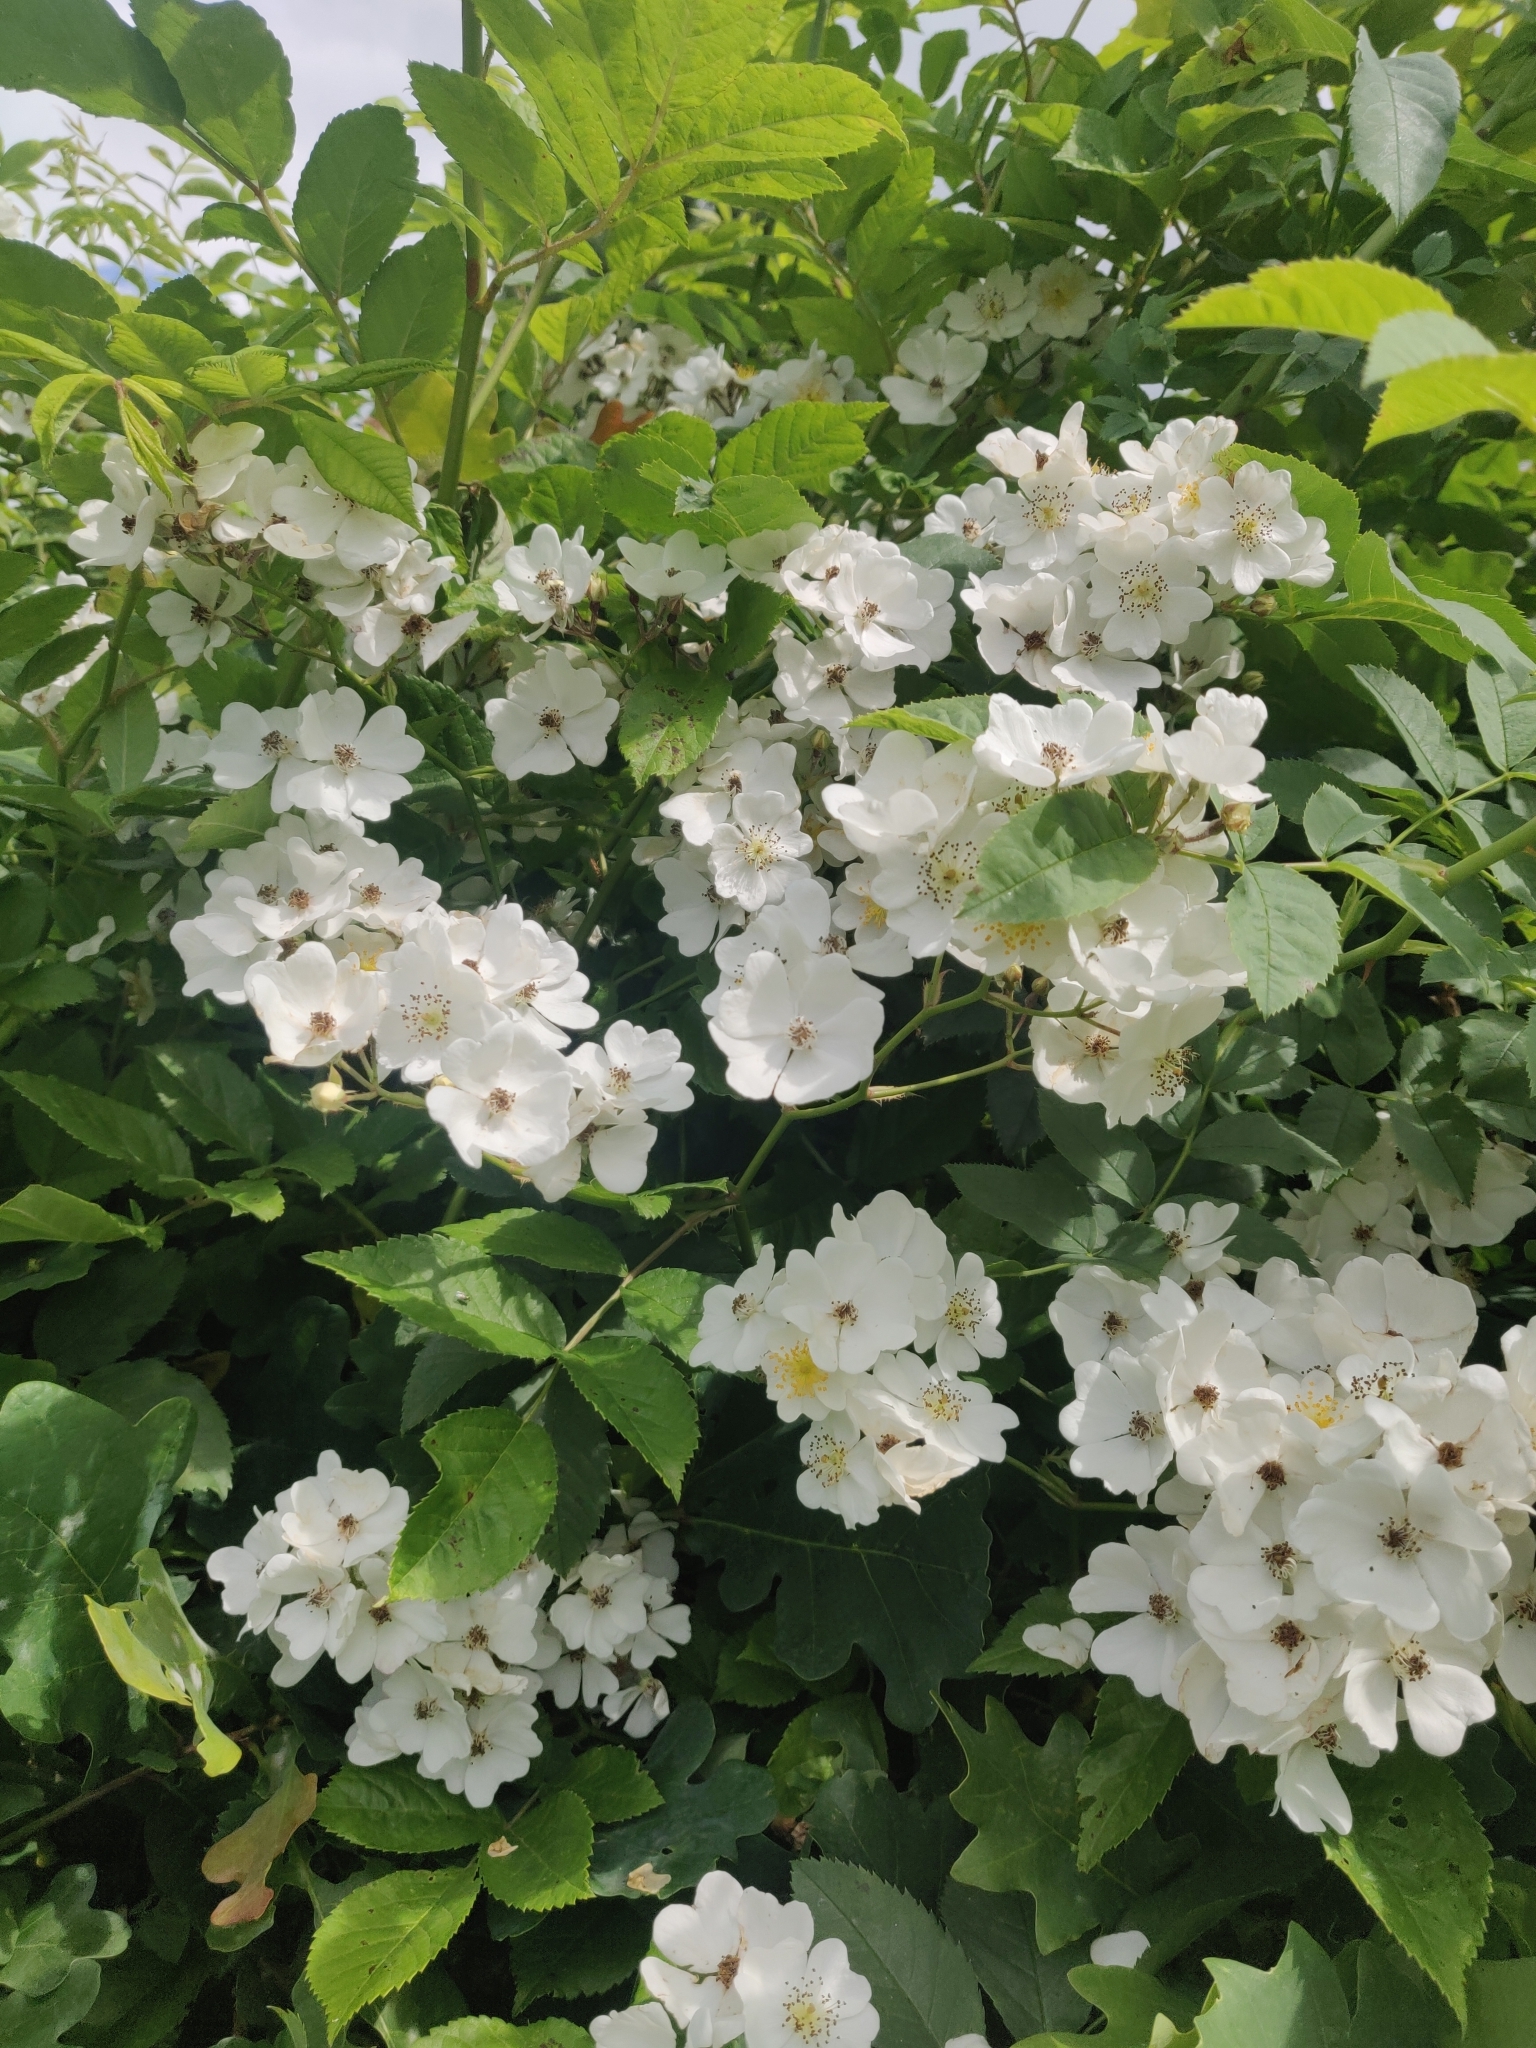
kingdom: Plantae
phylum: Tracheophyta
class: Magnoliopsida
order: Rosales
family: Rosaceae
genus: Rosa
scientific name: Rosa multiflora
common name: Multiflora rose
